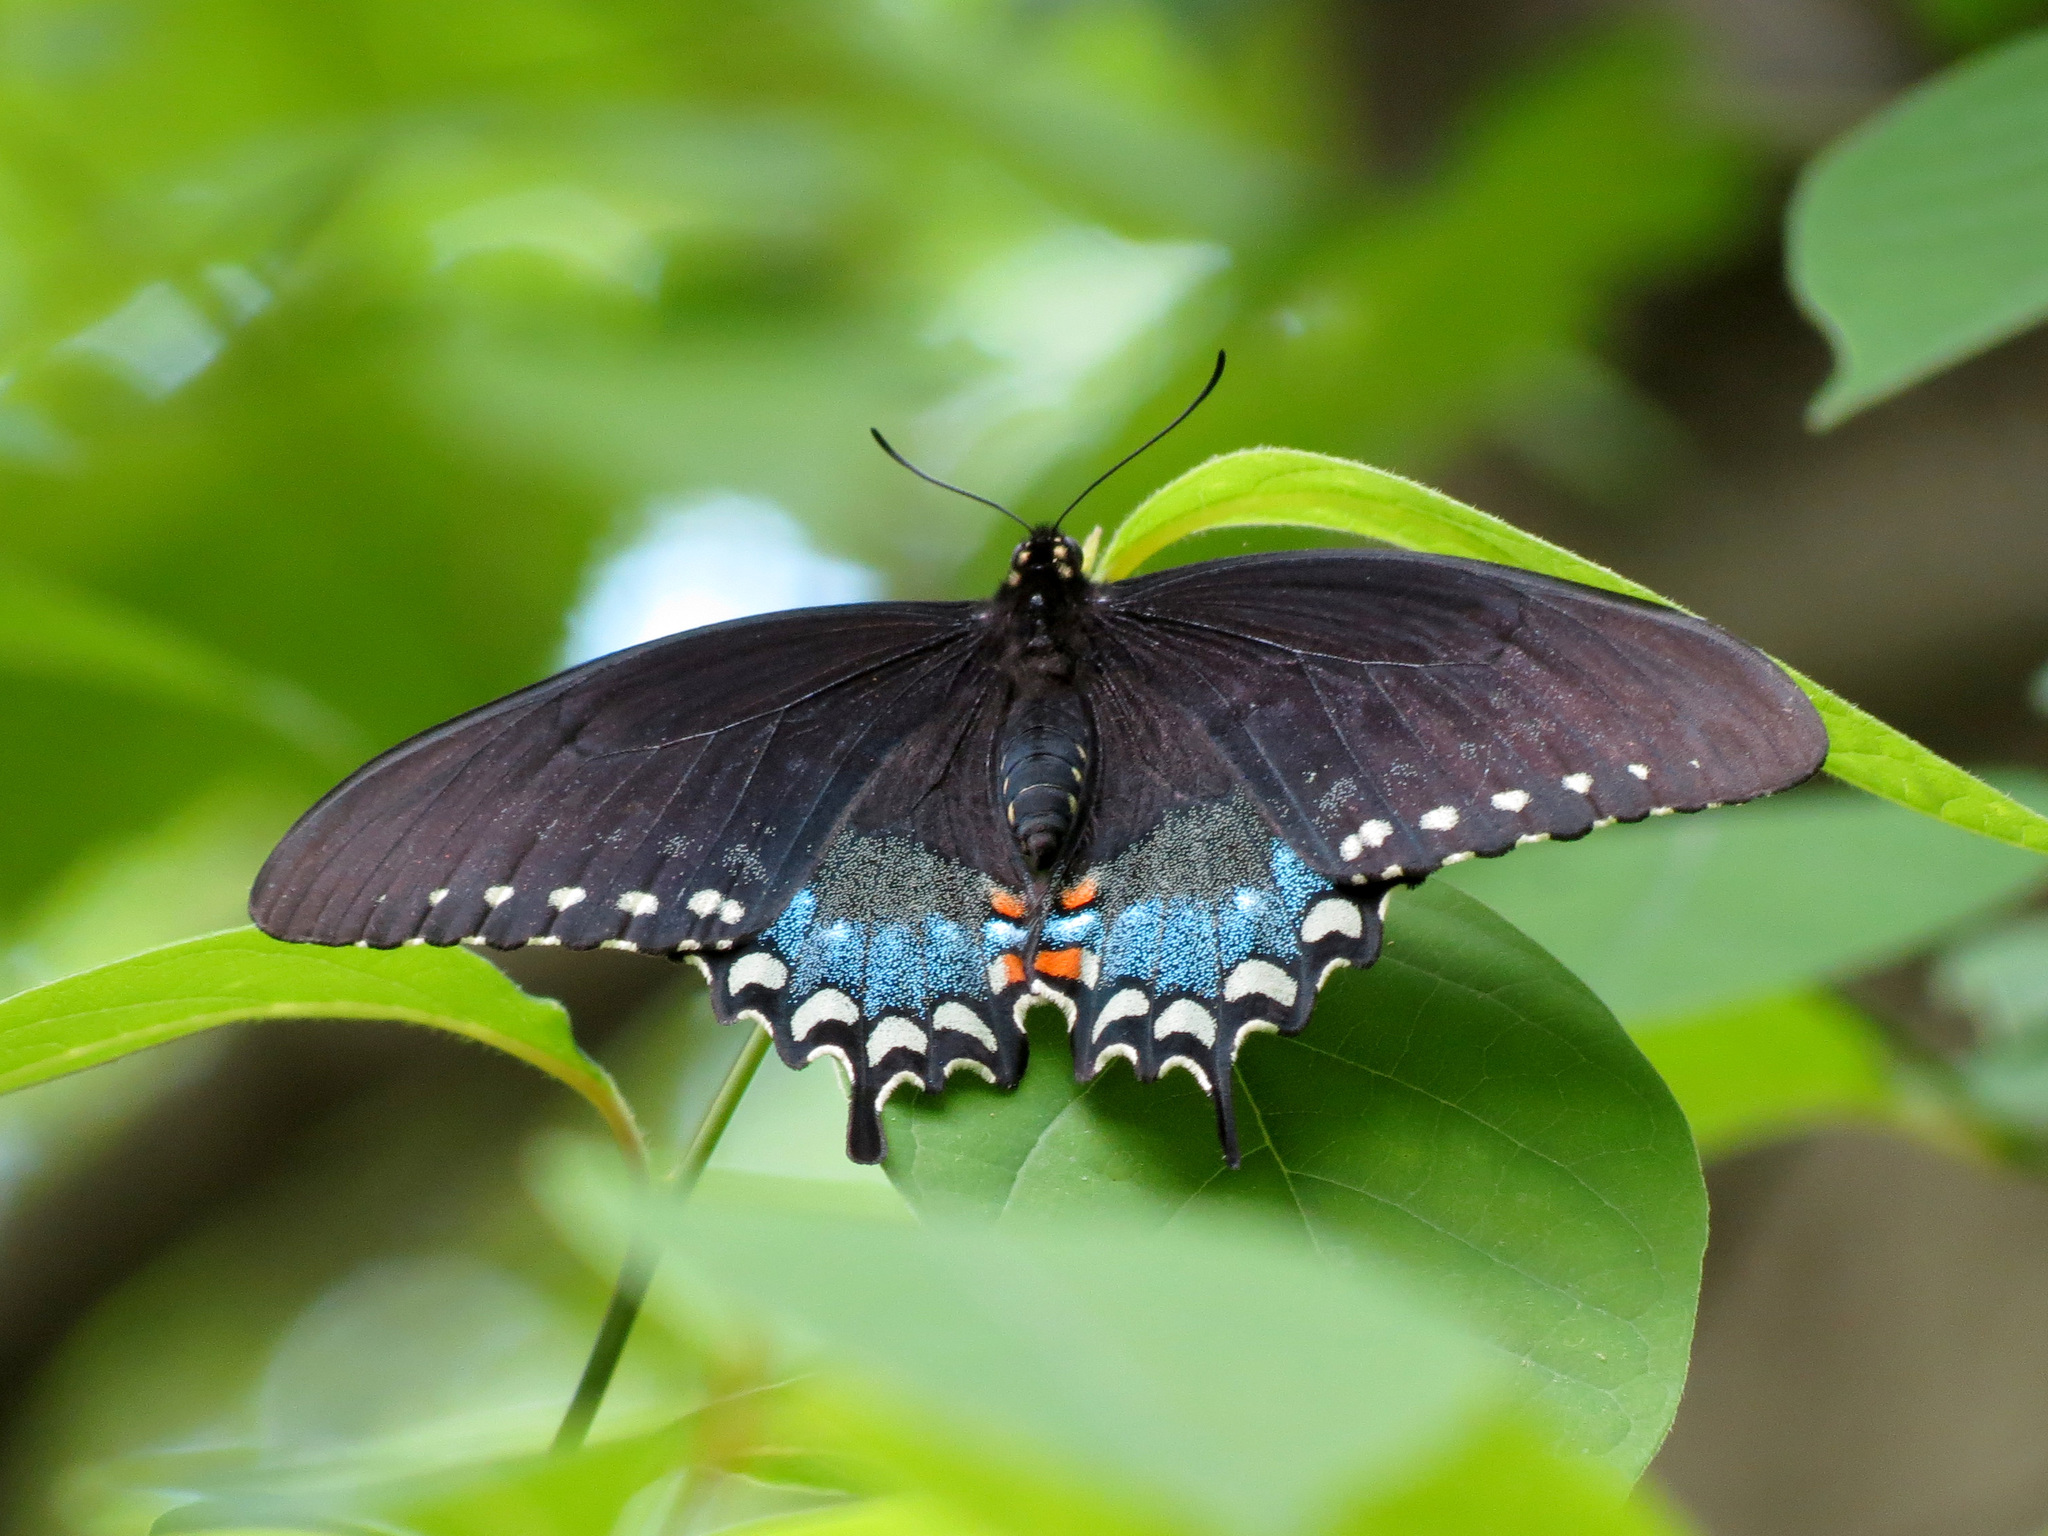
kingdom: Animalia
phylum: Arthropoda
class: Insecta
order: Lepidoptera
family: Papilionidae
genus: Papilio
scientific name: Papilio troilus
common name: Spicebush swallowtail
